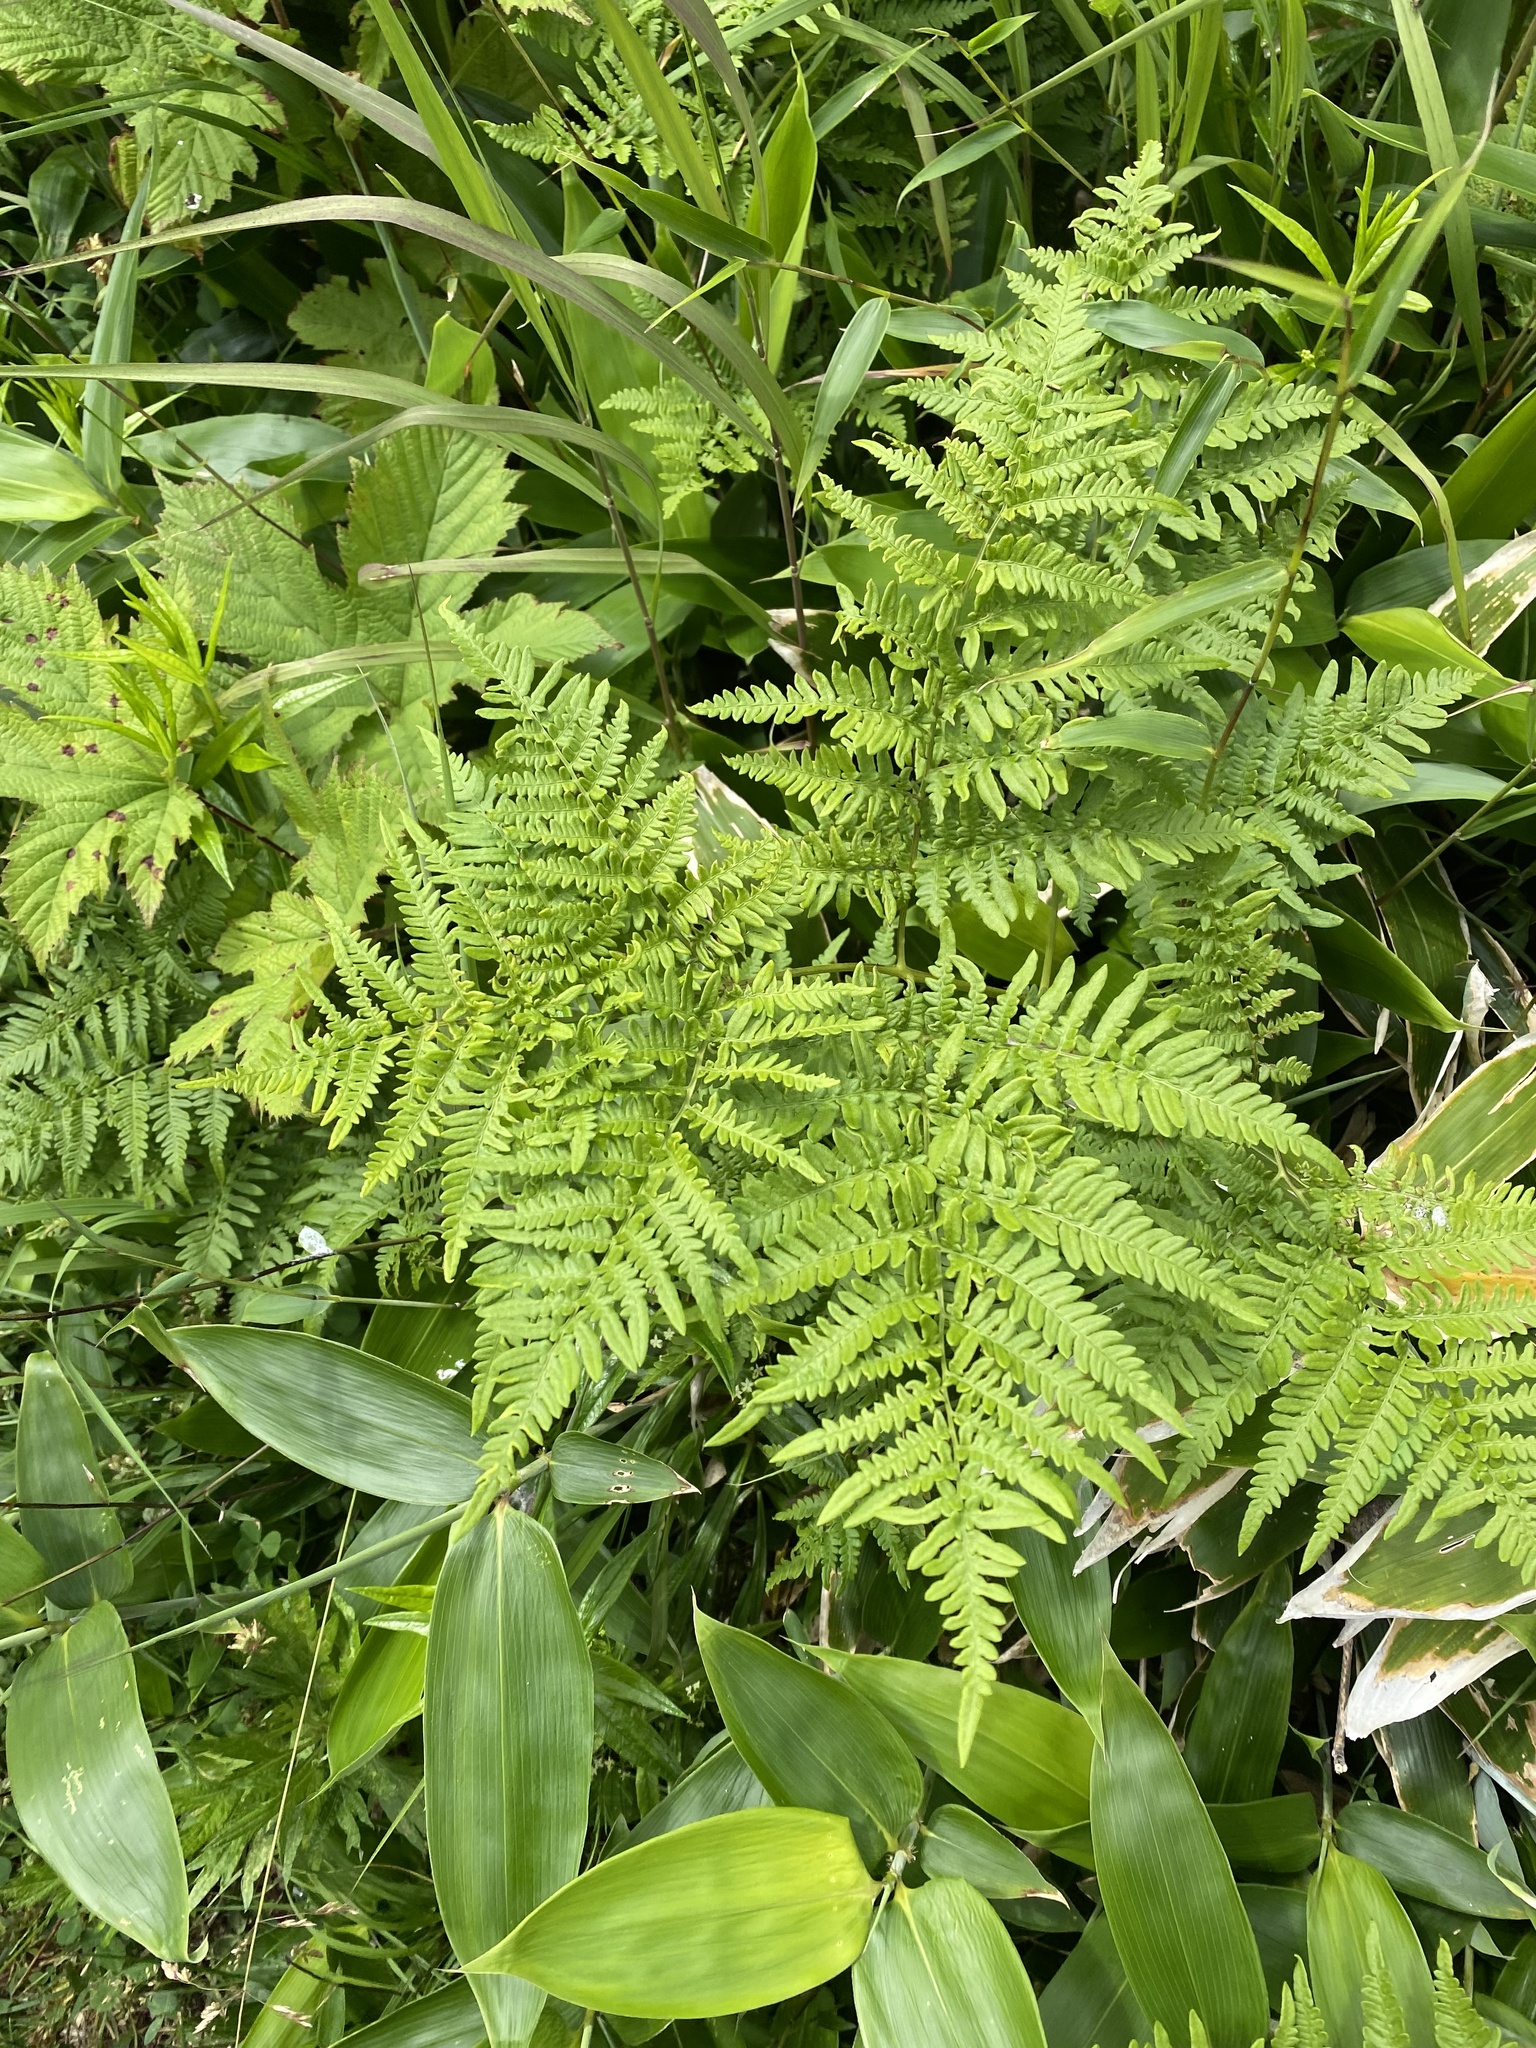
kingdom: Plantae
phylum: Tracheophyta
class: Polypodiopsida
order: Polypodiales
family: Dennstaedtiaceae
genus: Pteridium
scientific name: Pteridium aquilinum
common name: Bracken
